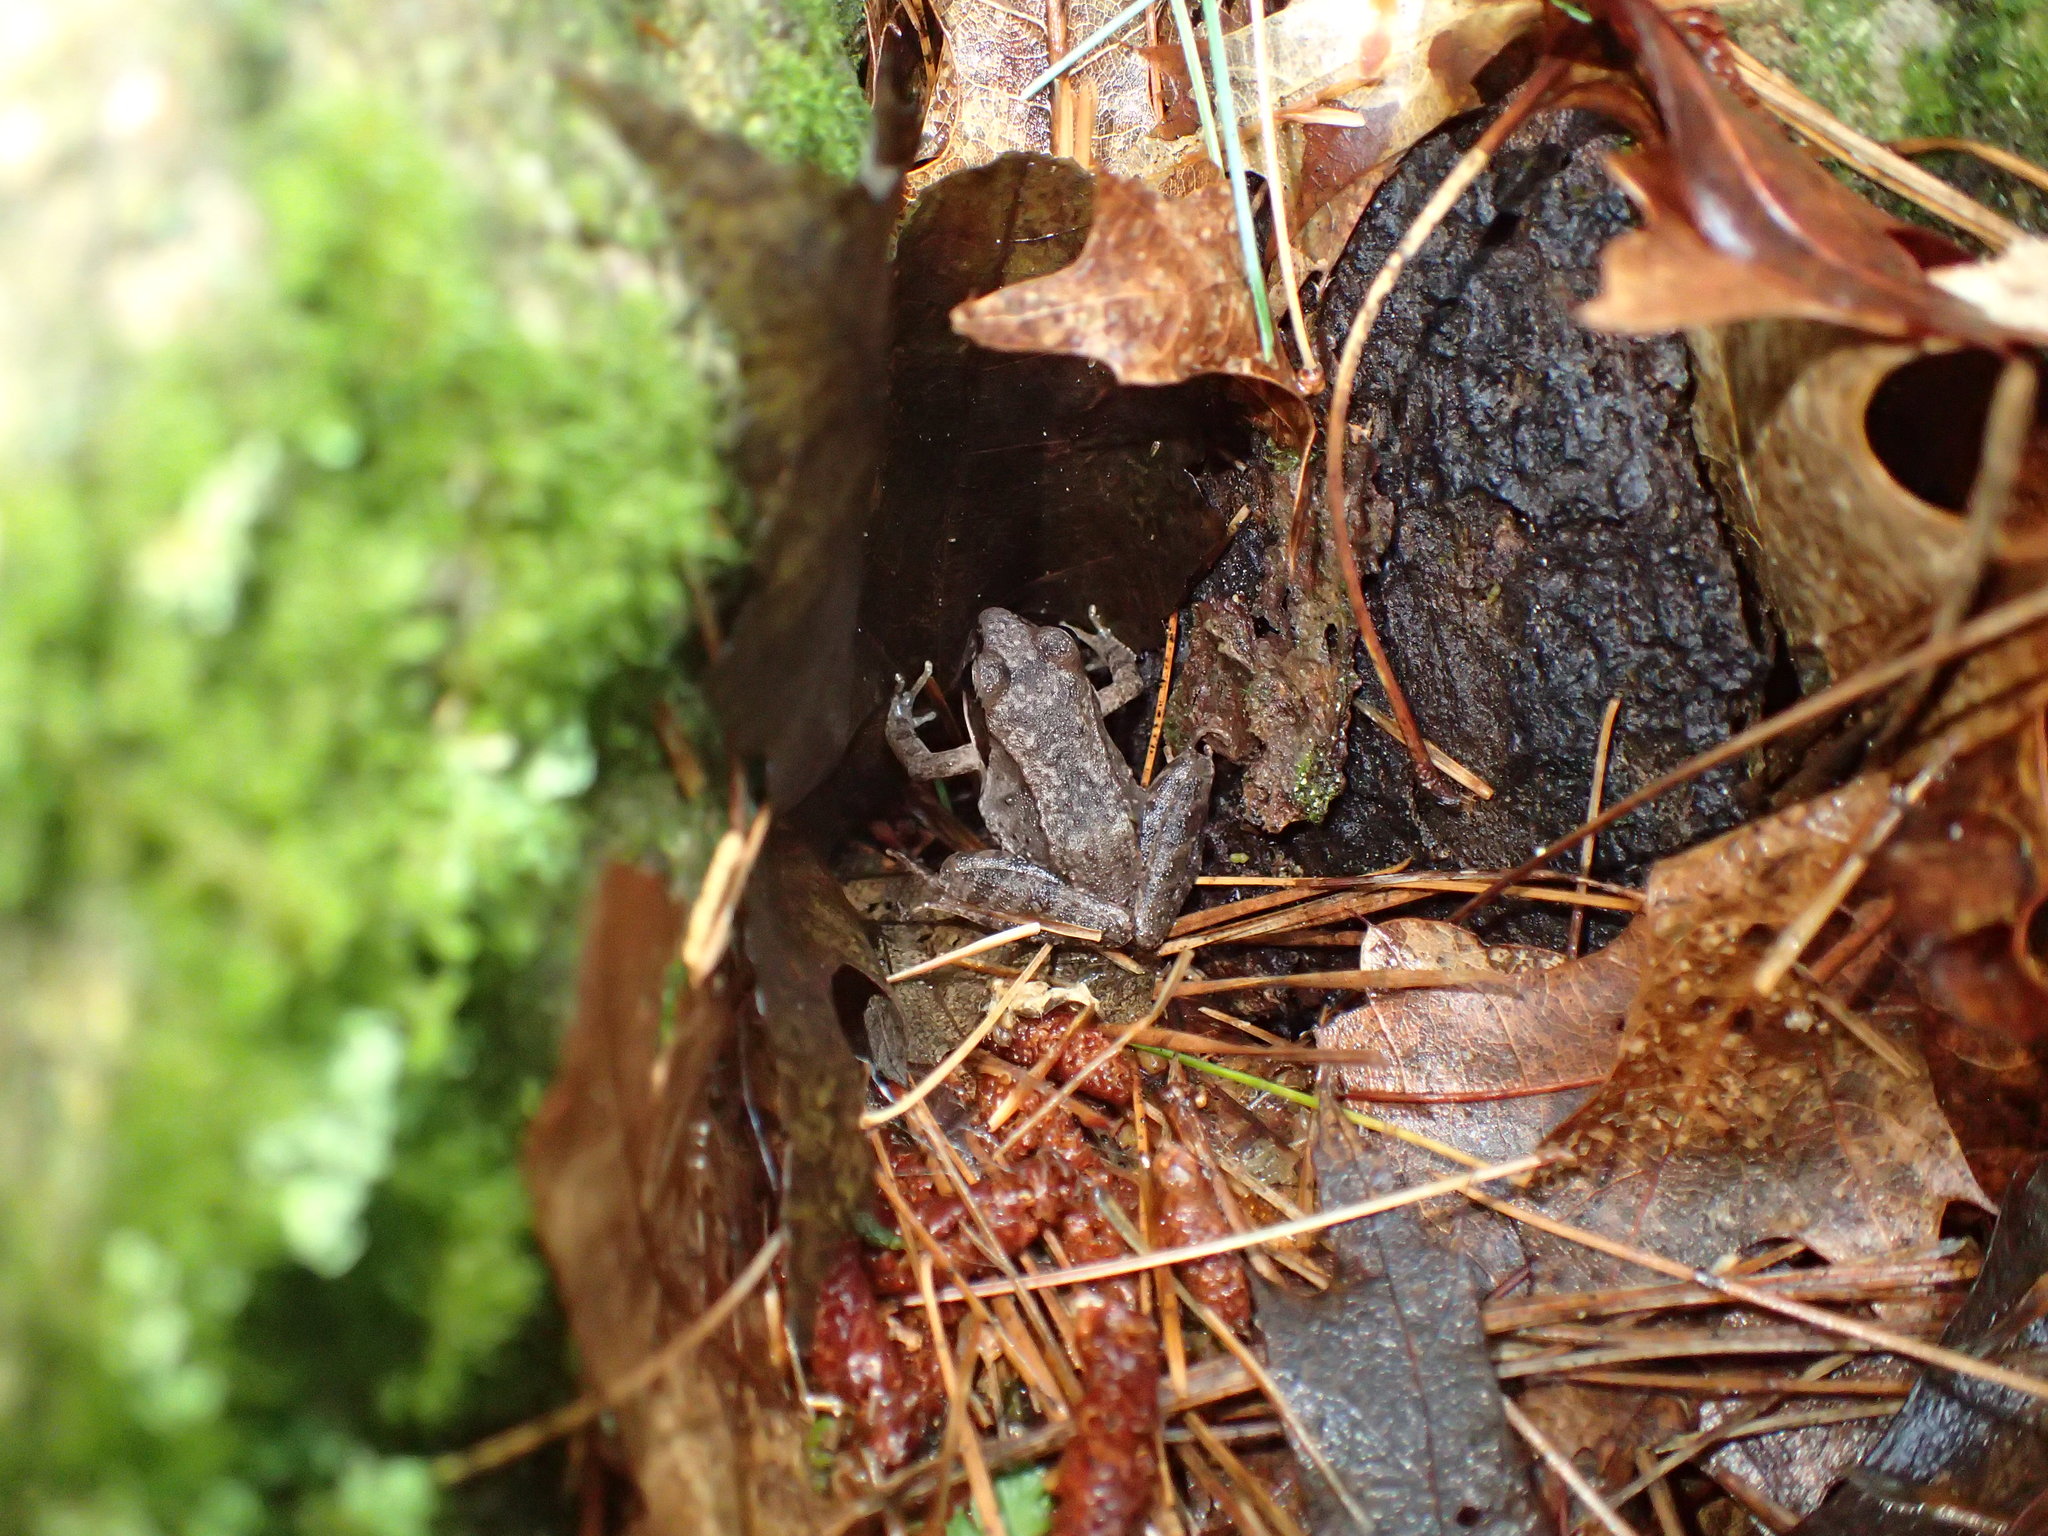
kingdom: Animalia
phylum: Chordata
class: Amphibia
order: Anura
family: Ranidae
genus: Lithobates
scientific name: Lithobates sylvaticus
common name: Wood frog
